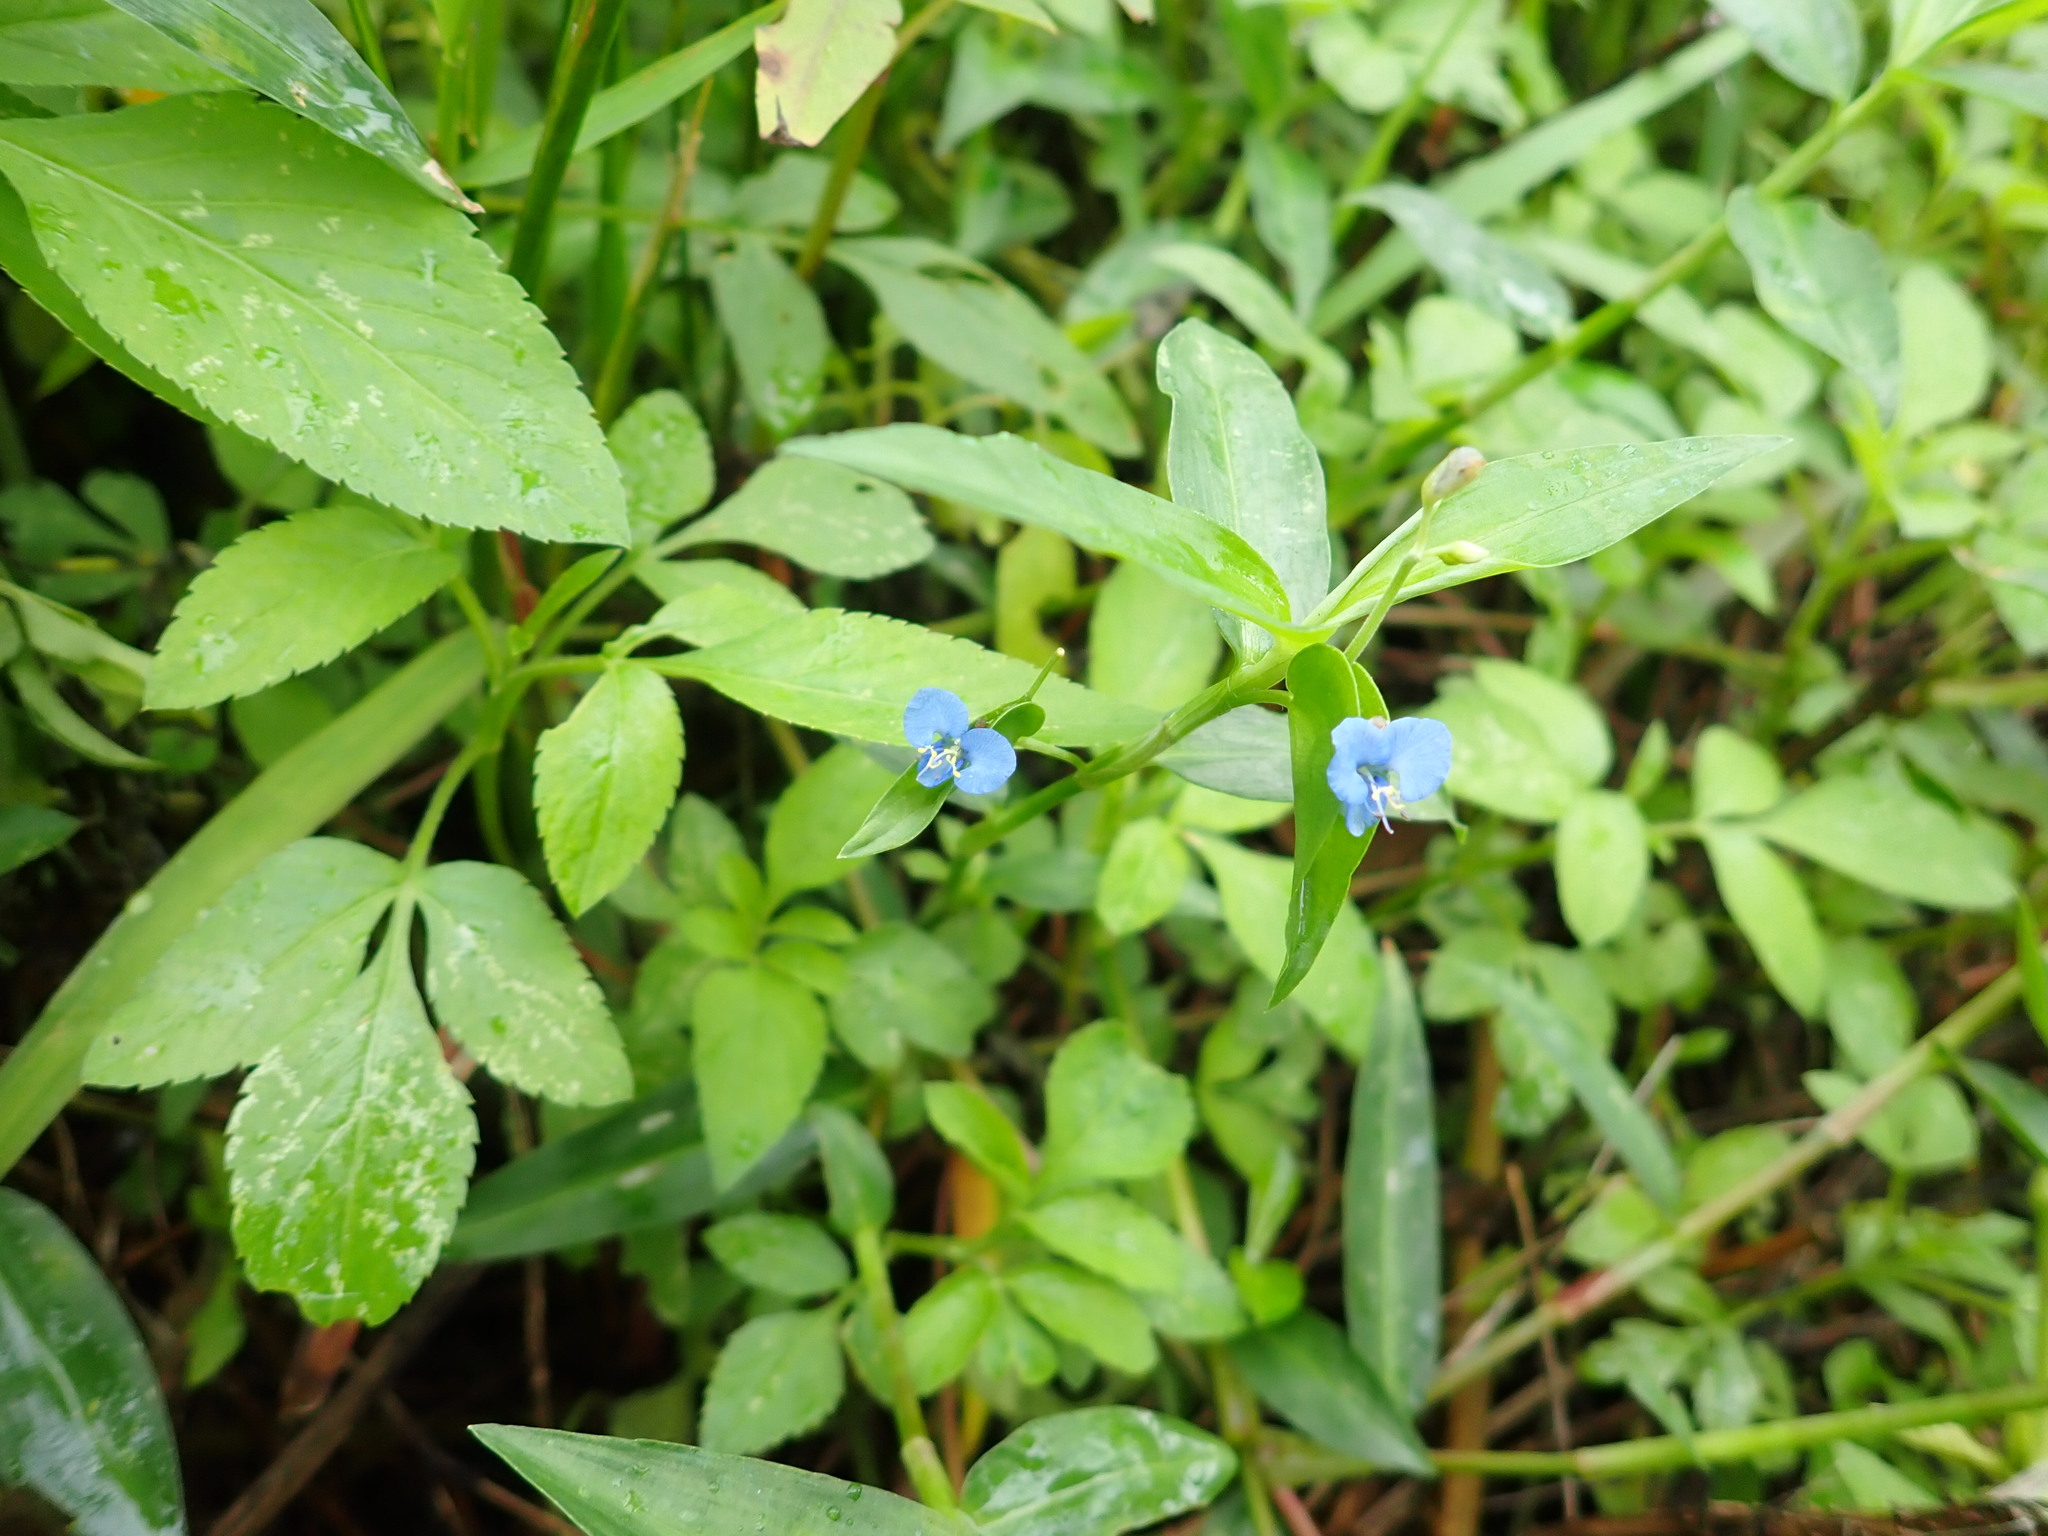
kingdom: Plantae
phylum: Tracheophyta
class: Liliopsida
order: Commelinales
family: Commelinaceae
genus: Commelina
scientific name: Commelina diffusa
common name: Climbing dayflower
